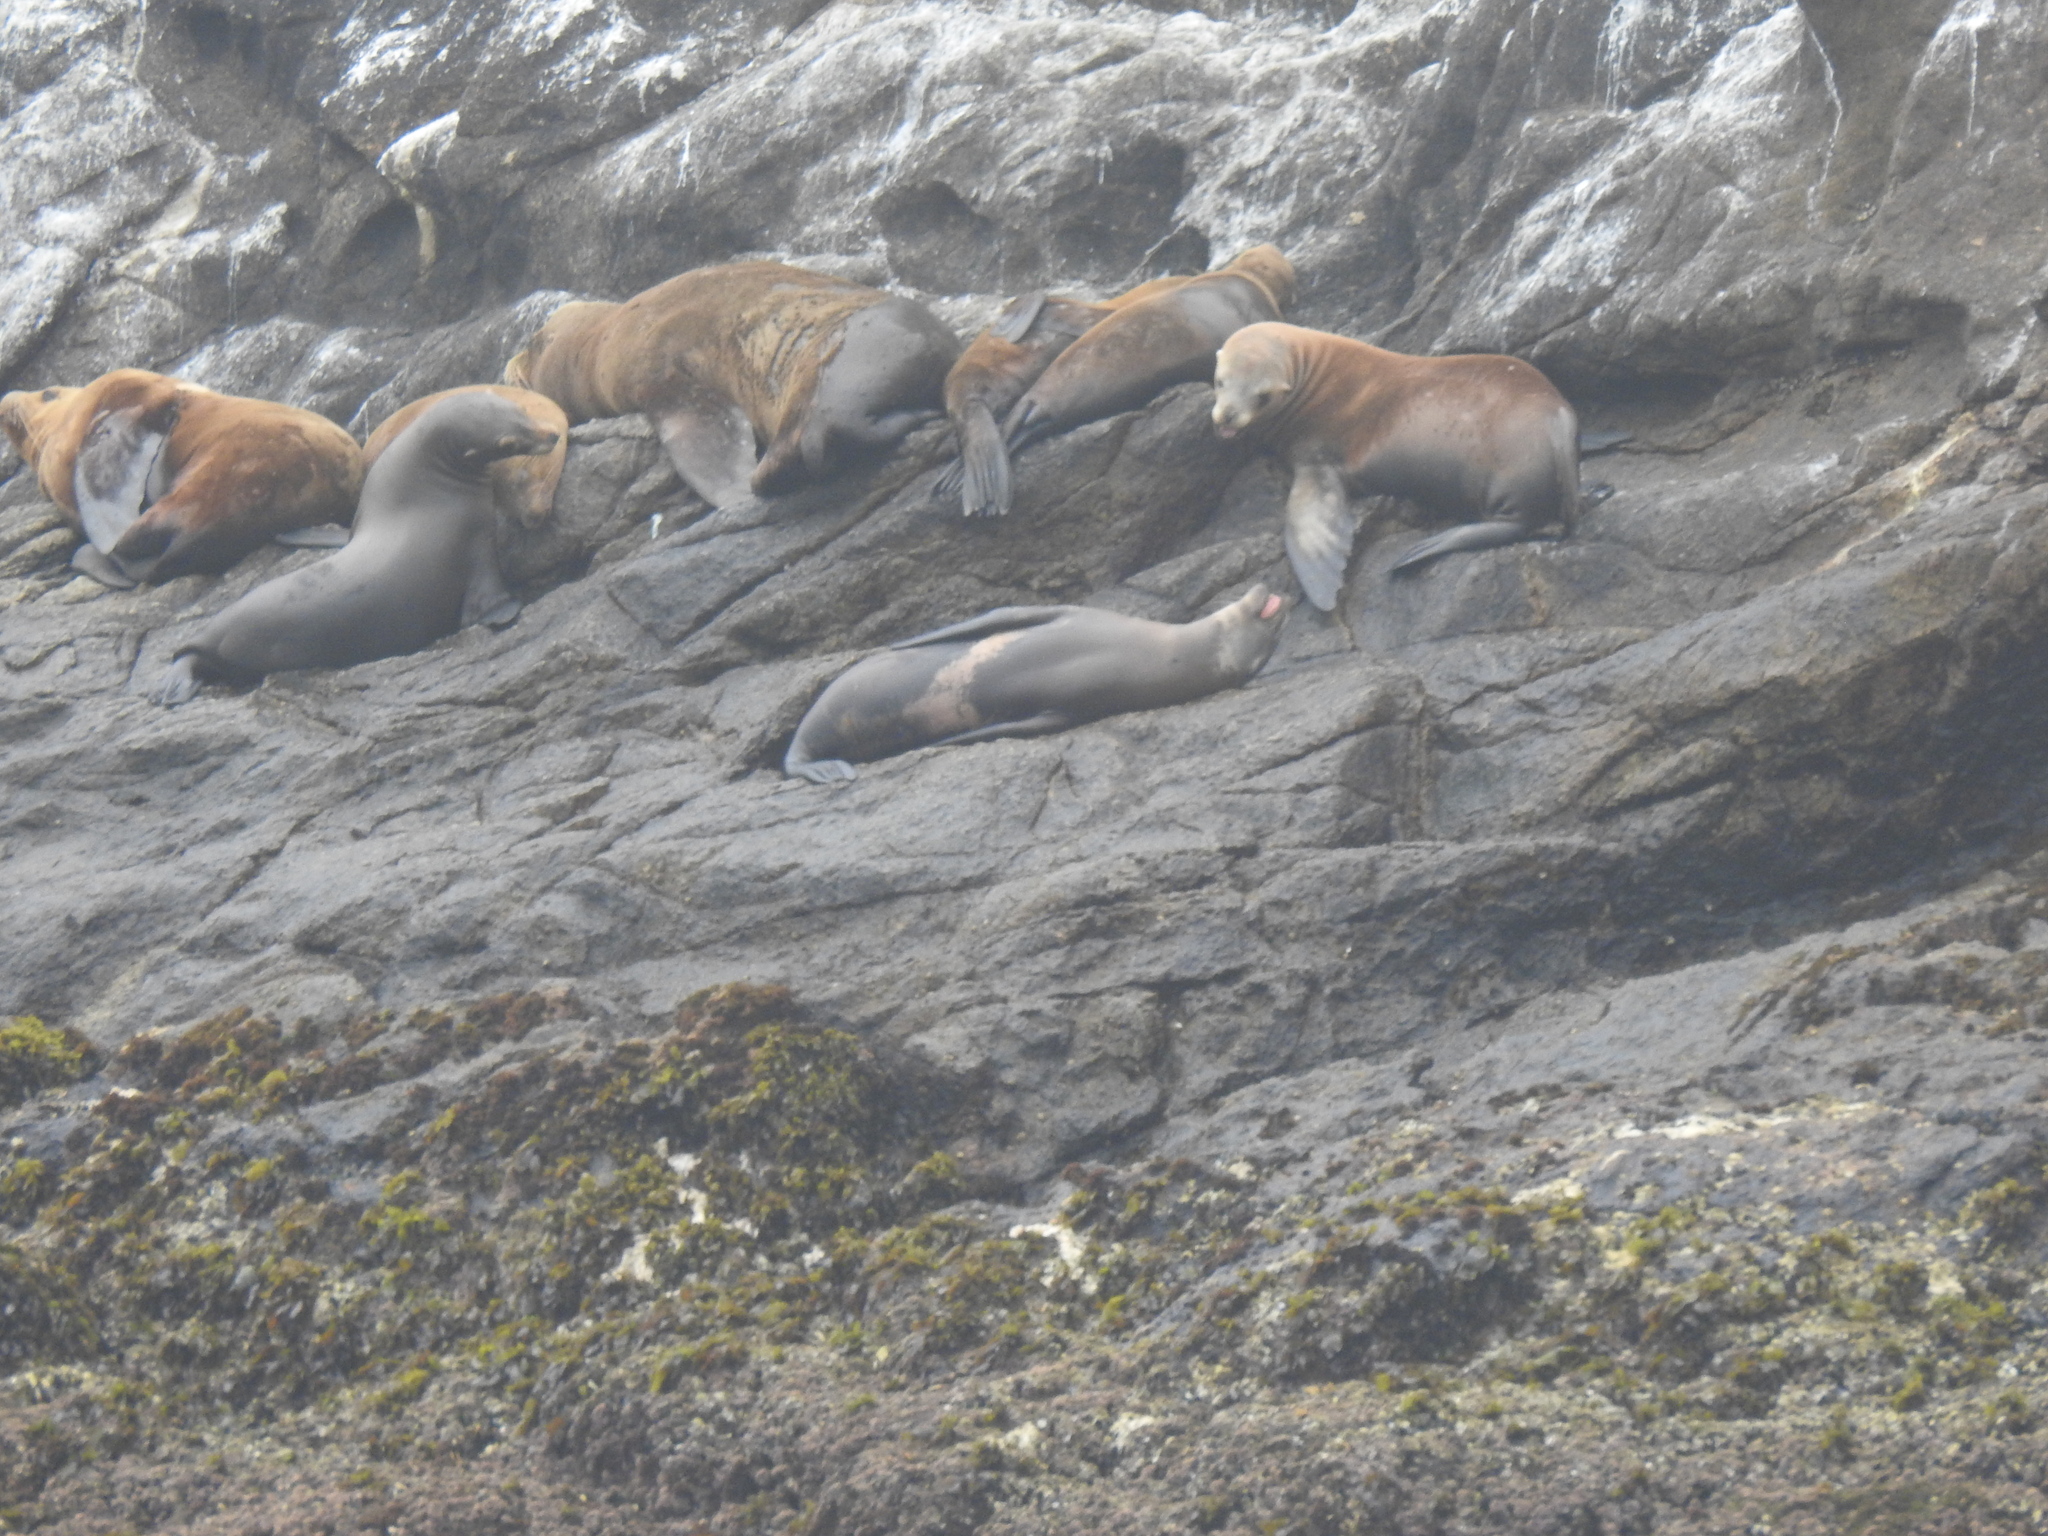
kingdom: Animalia
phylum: Chordata
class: Mammalia
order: Carnivora
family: Otariidae
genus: Zalophus
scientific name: Zalophus californianus
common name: California sea lion
